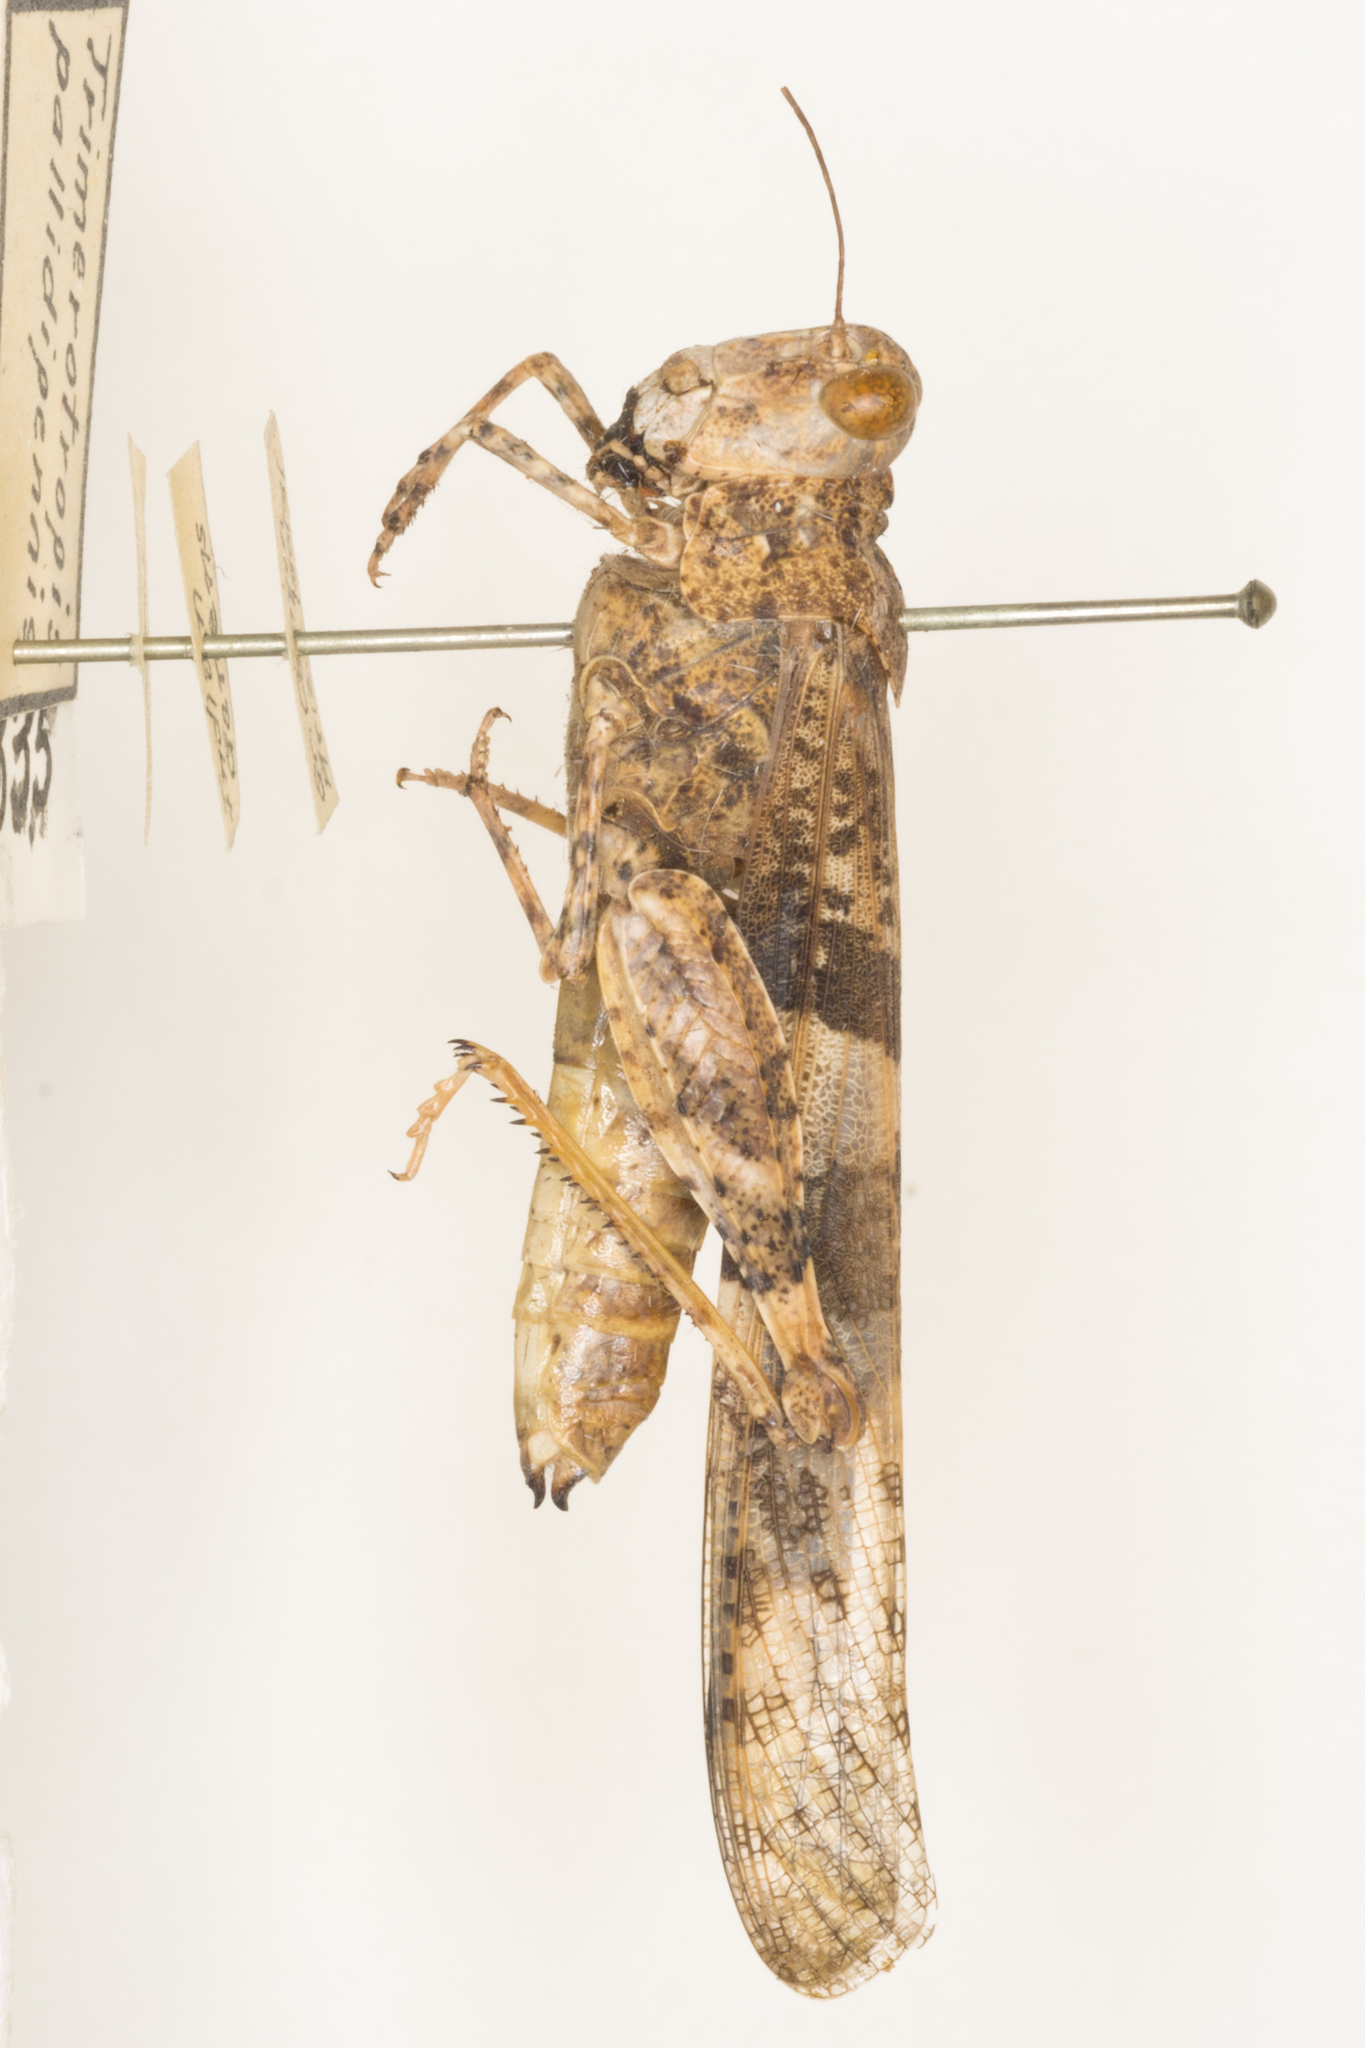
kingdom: Animalia
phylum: Arthropoda
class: Insecta
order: Orthoptera
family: Acrididae
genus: Trimerotropis
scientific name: Trimerotropis pallidipennis
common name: Pallid-winged grasshopper
